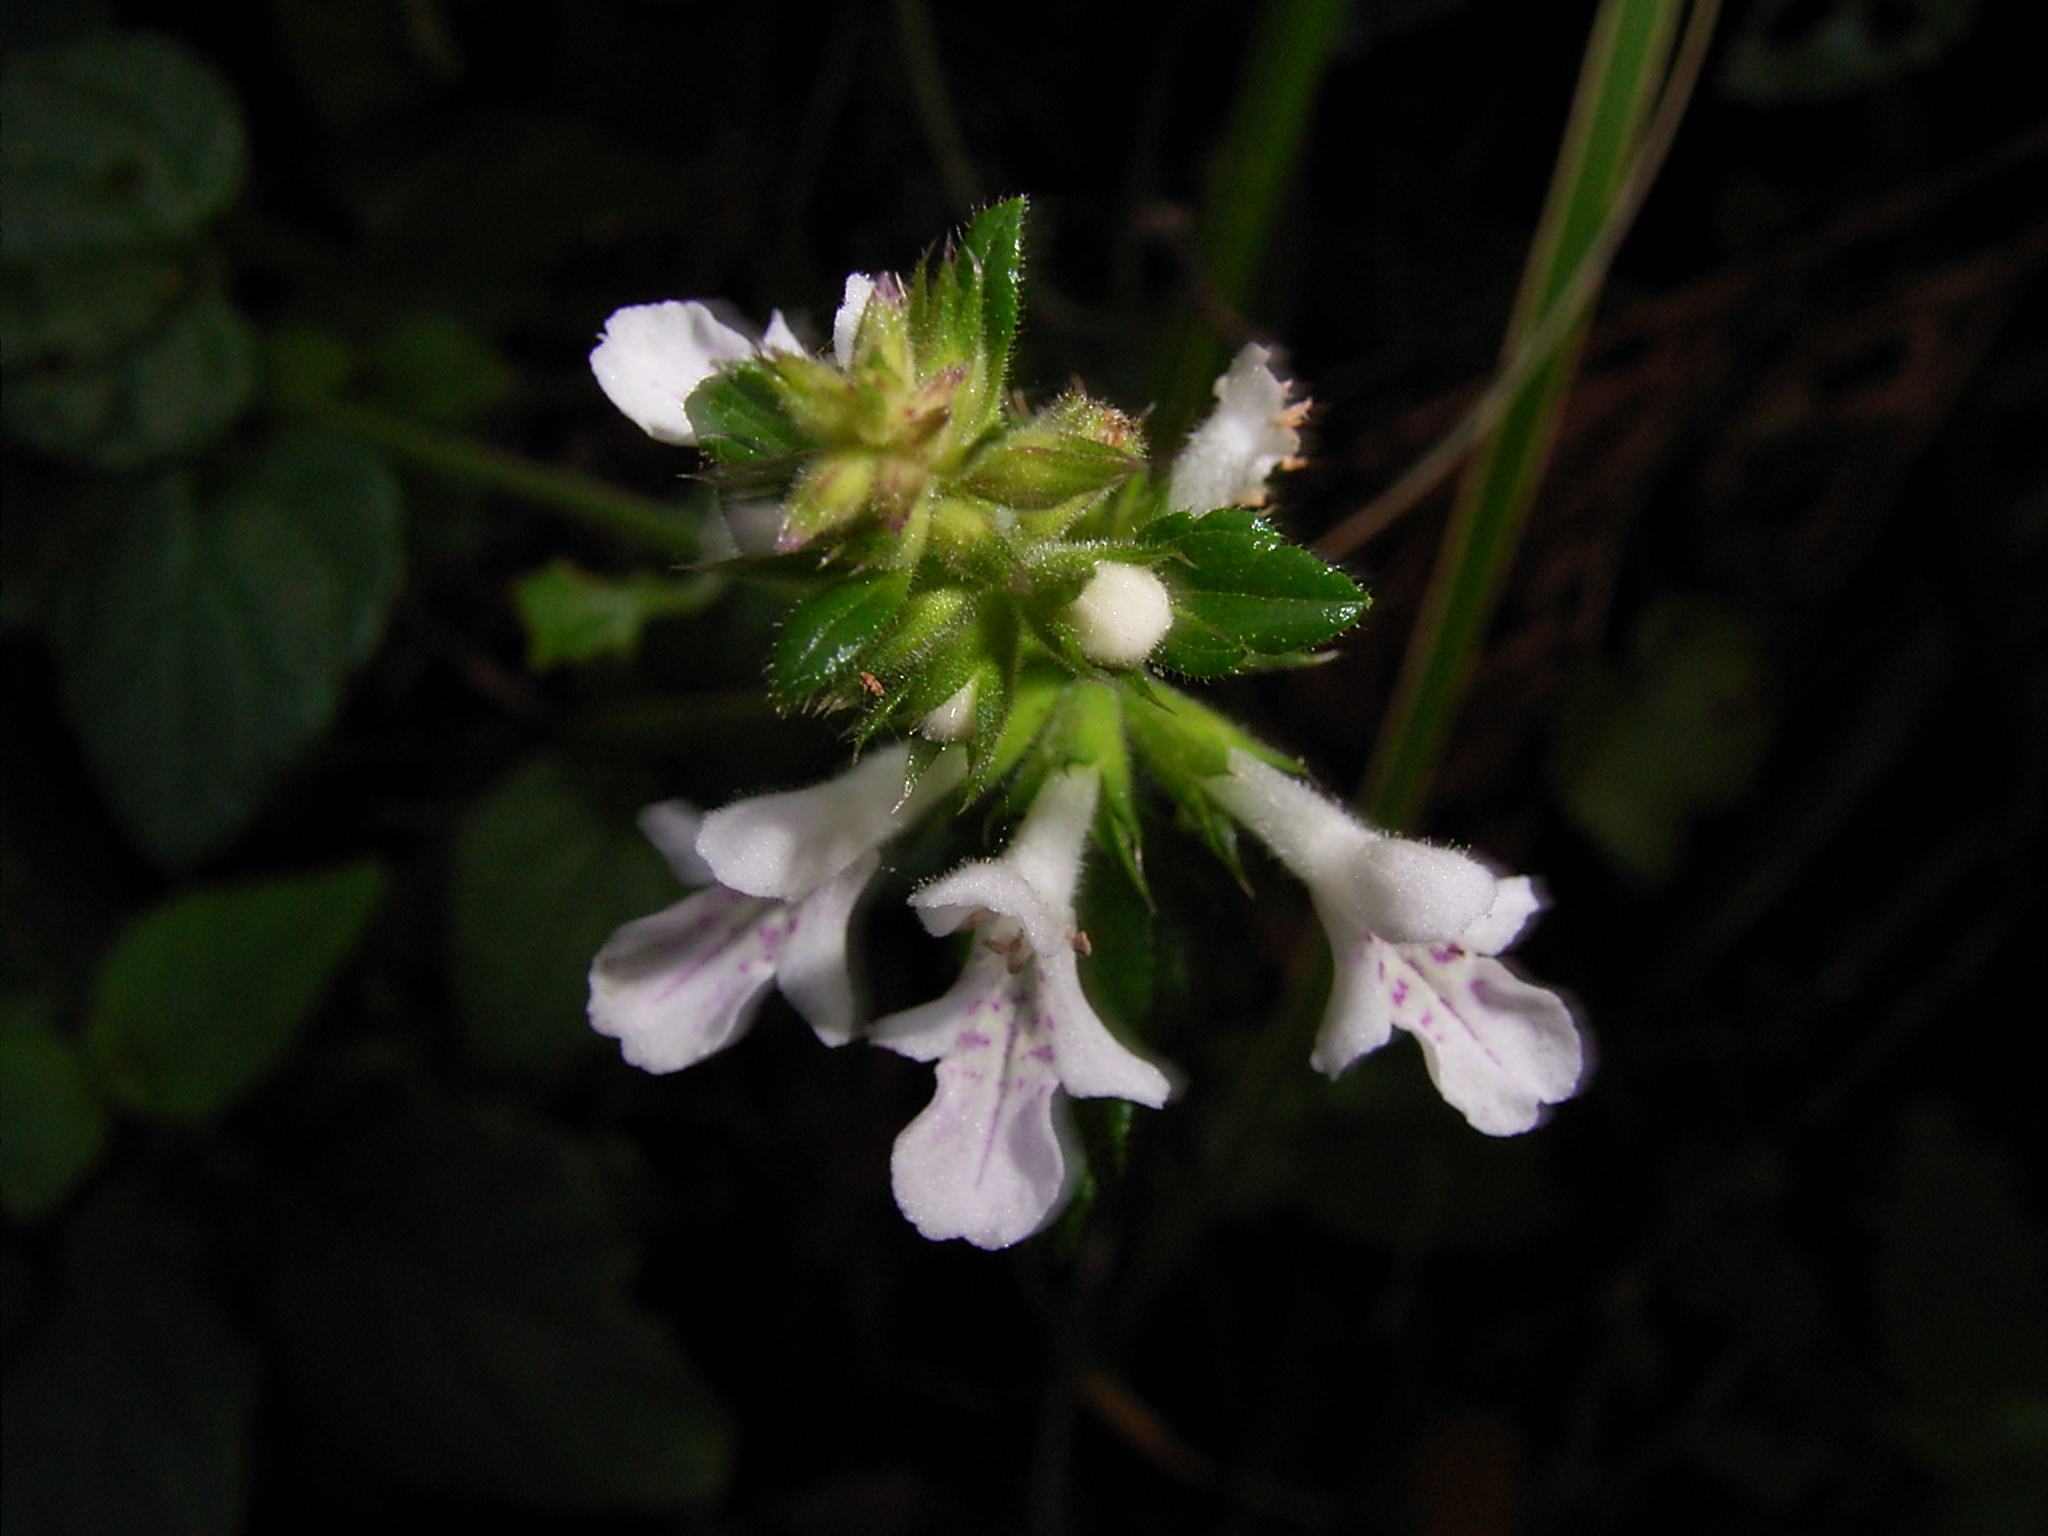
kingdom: Plantae
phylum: Tracheophyta
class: Magnoliopsida
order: Lamiales
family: Lamiaceae
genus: Stachys
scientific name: Stachys aethiopica
